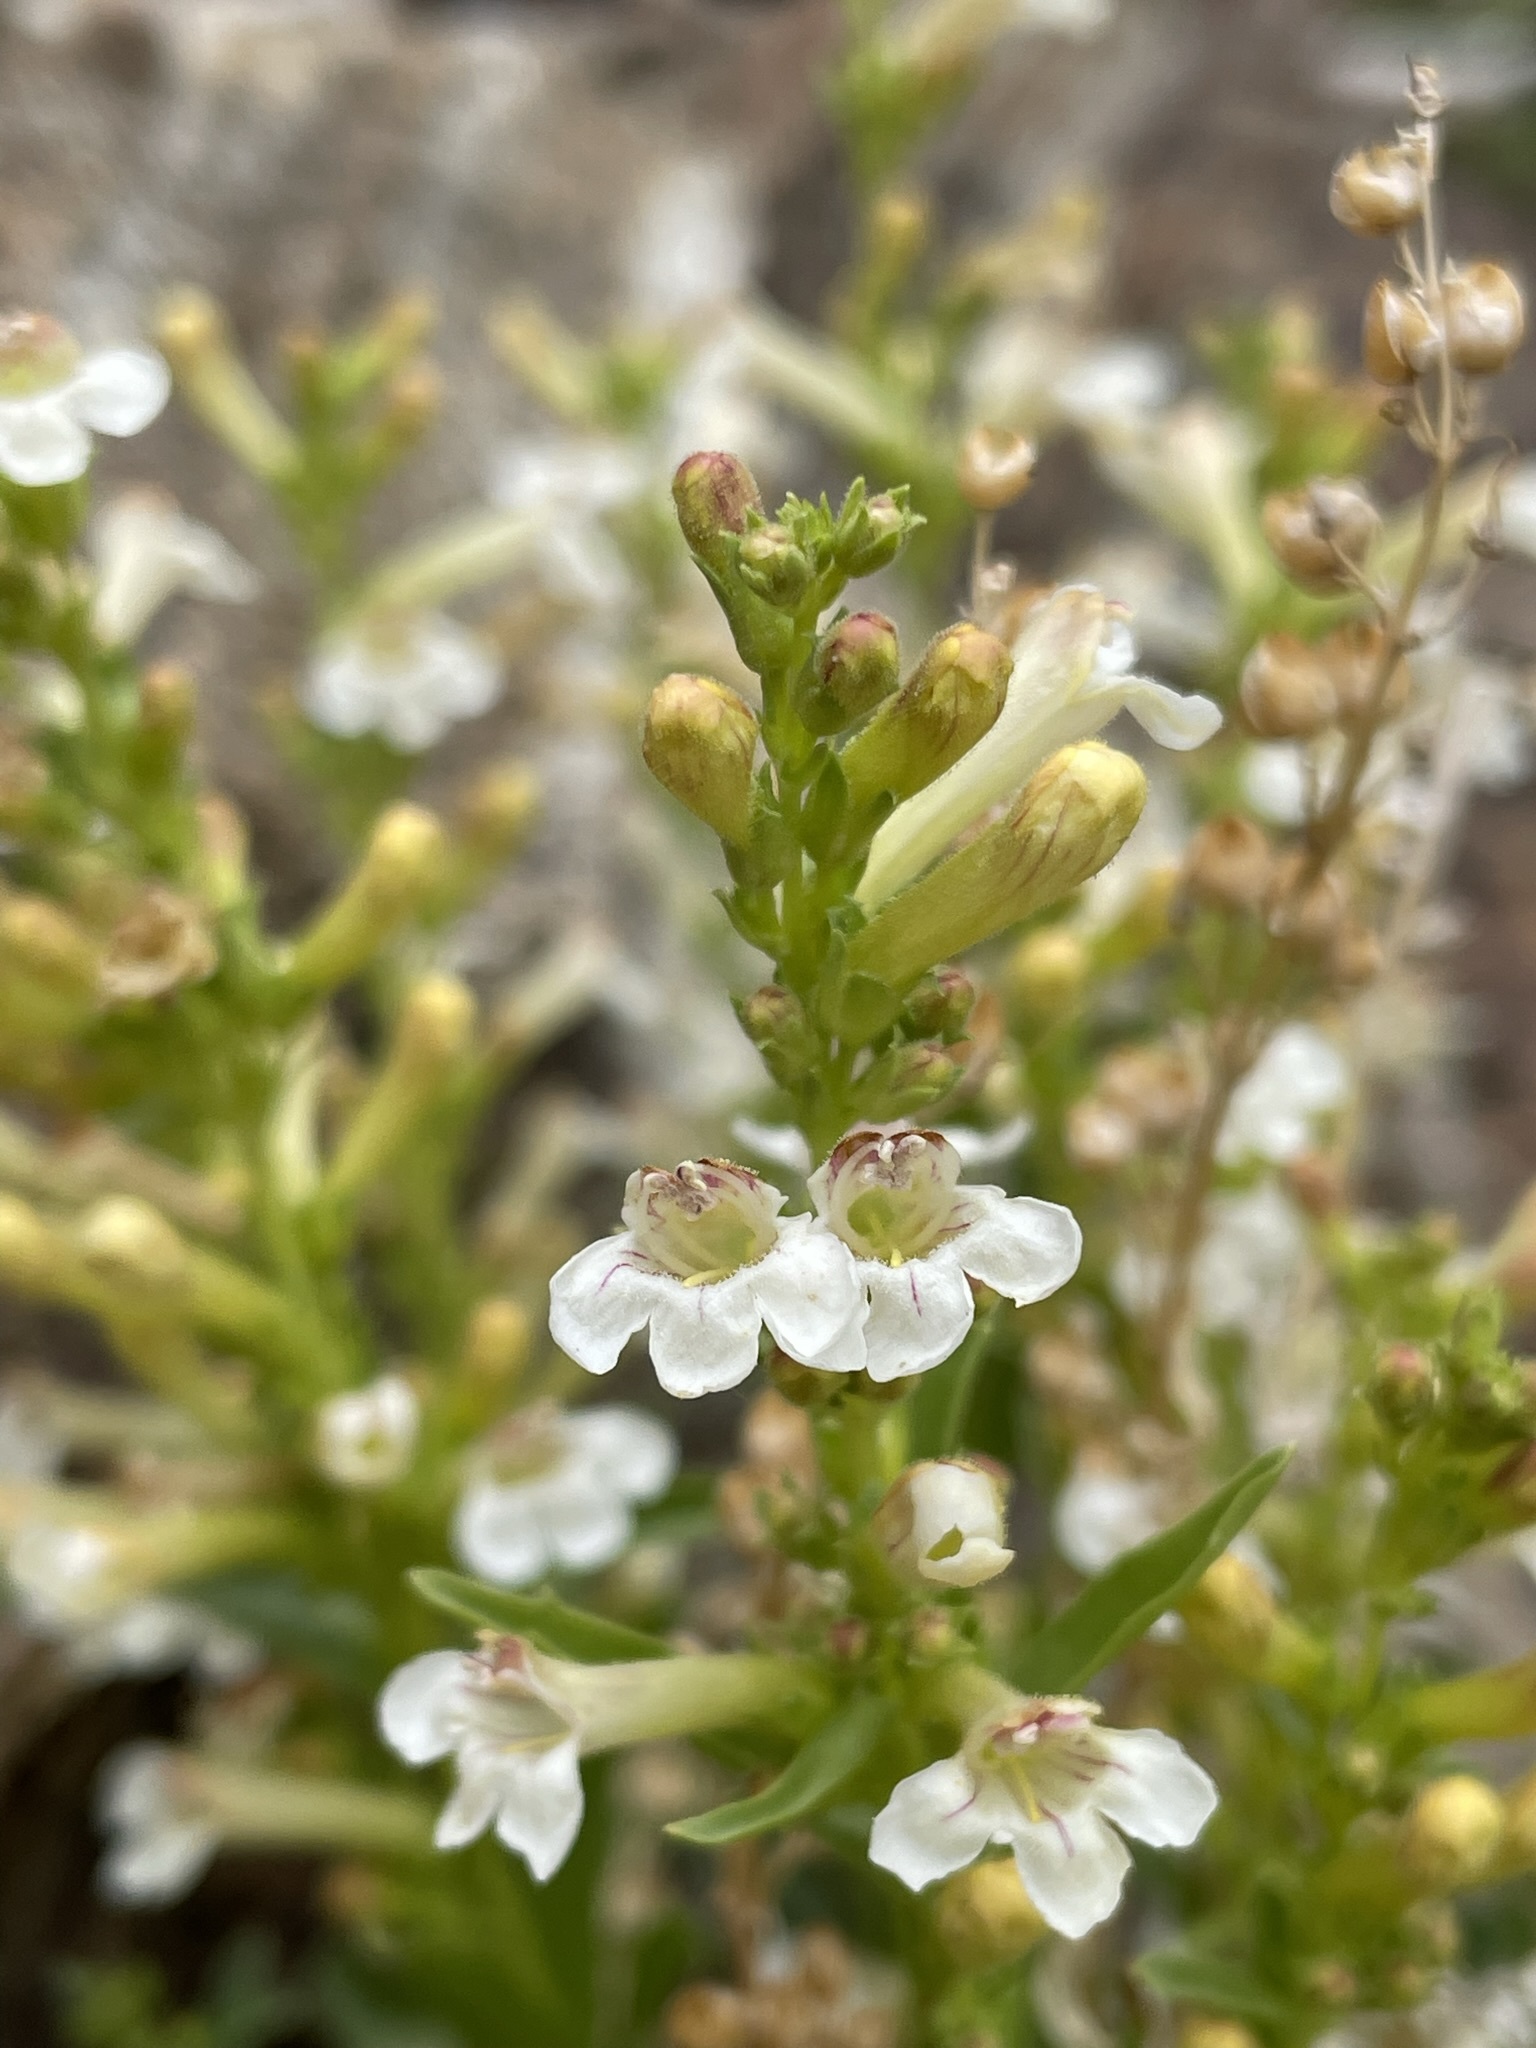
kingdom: Plantae
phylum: Tracheophyta
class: Magnoliopsida
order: Lamiales
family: Plantaginaceae
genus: Penstemon
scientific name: Penstemon deustus
